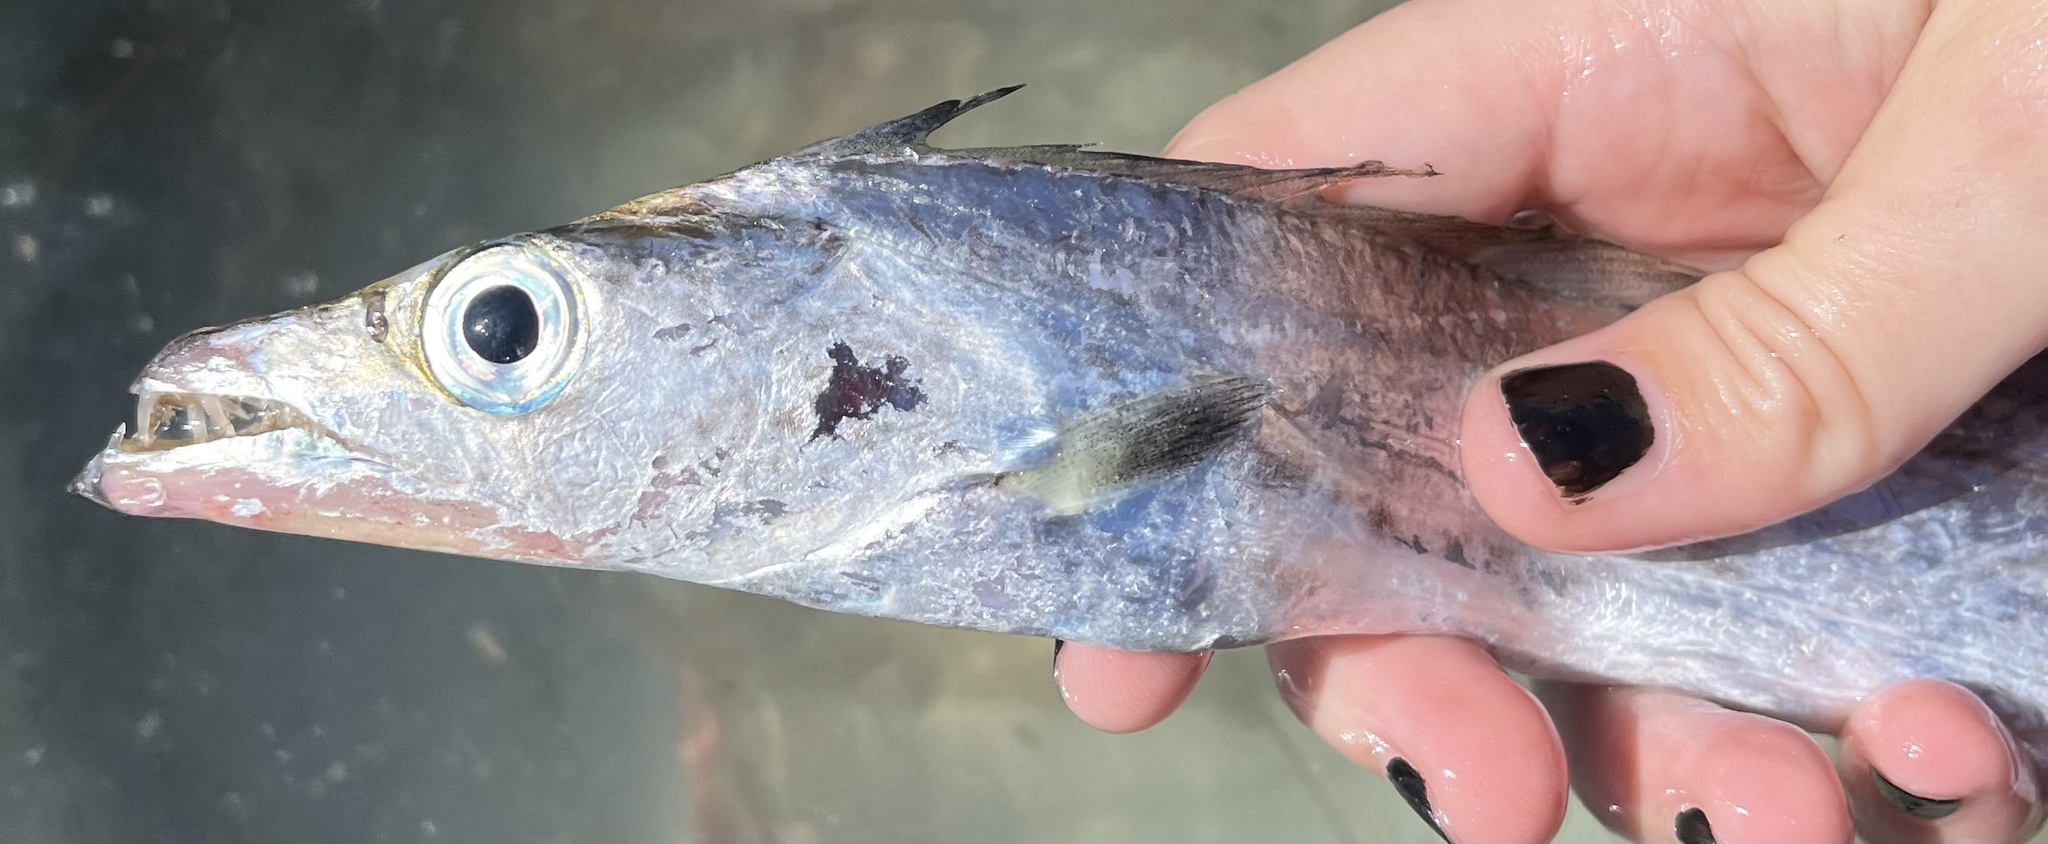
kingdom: Animalia
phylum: Chordata
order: Perciformes
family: Trichiuridae
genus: Trichiurus
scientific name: Trichiurus lepturus
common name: Largehead hairtail
